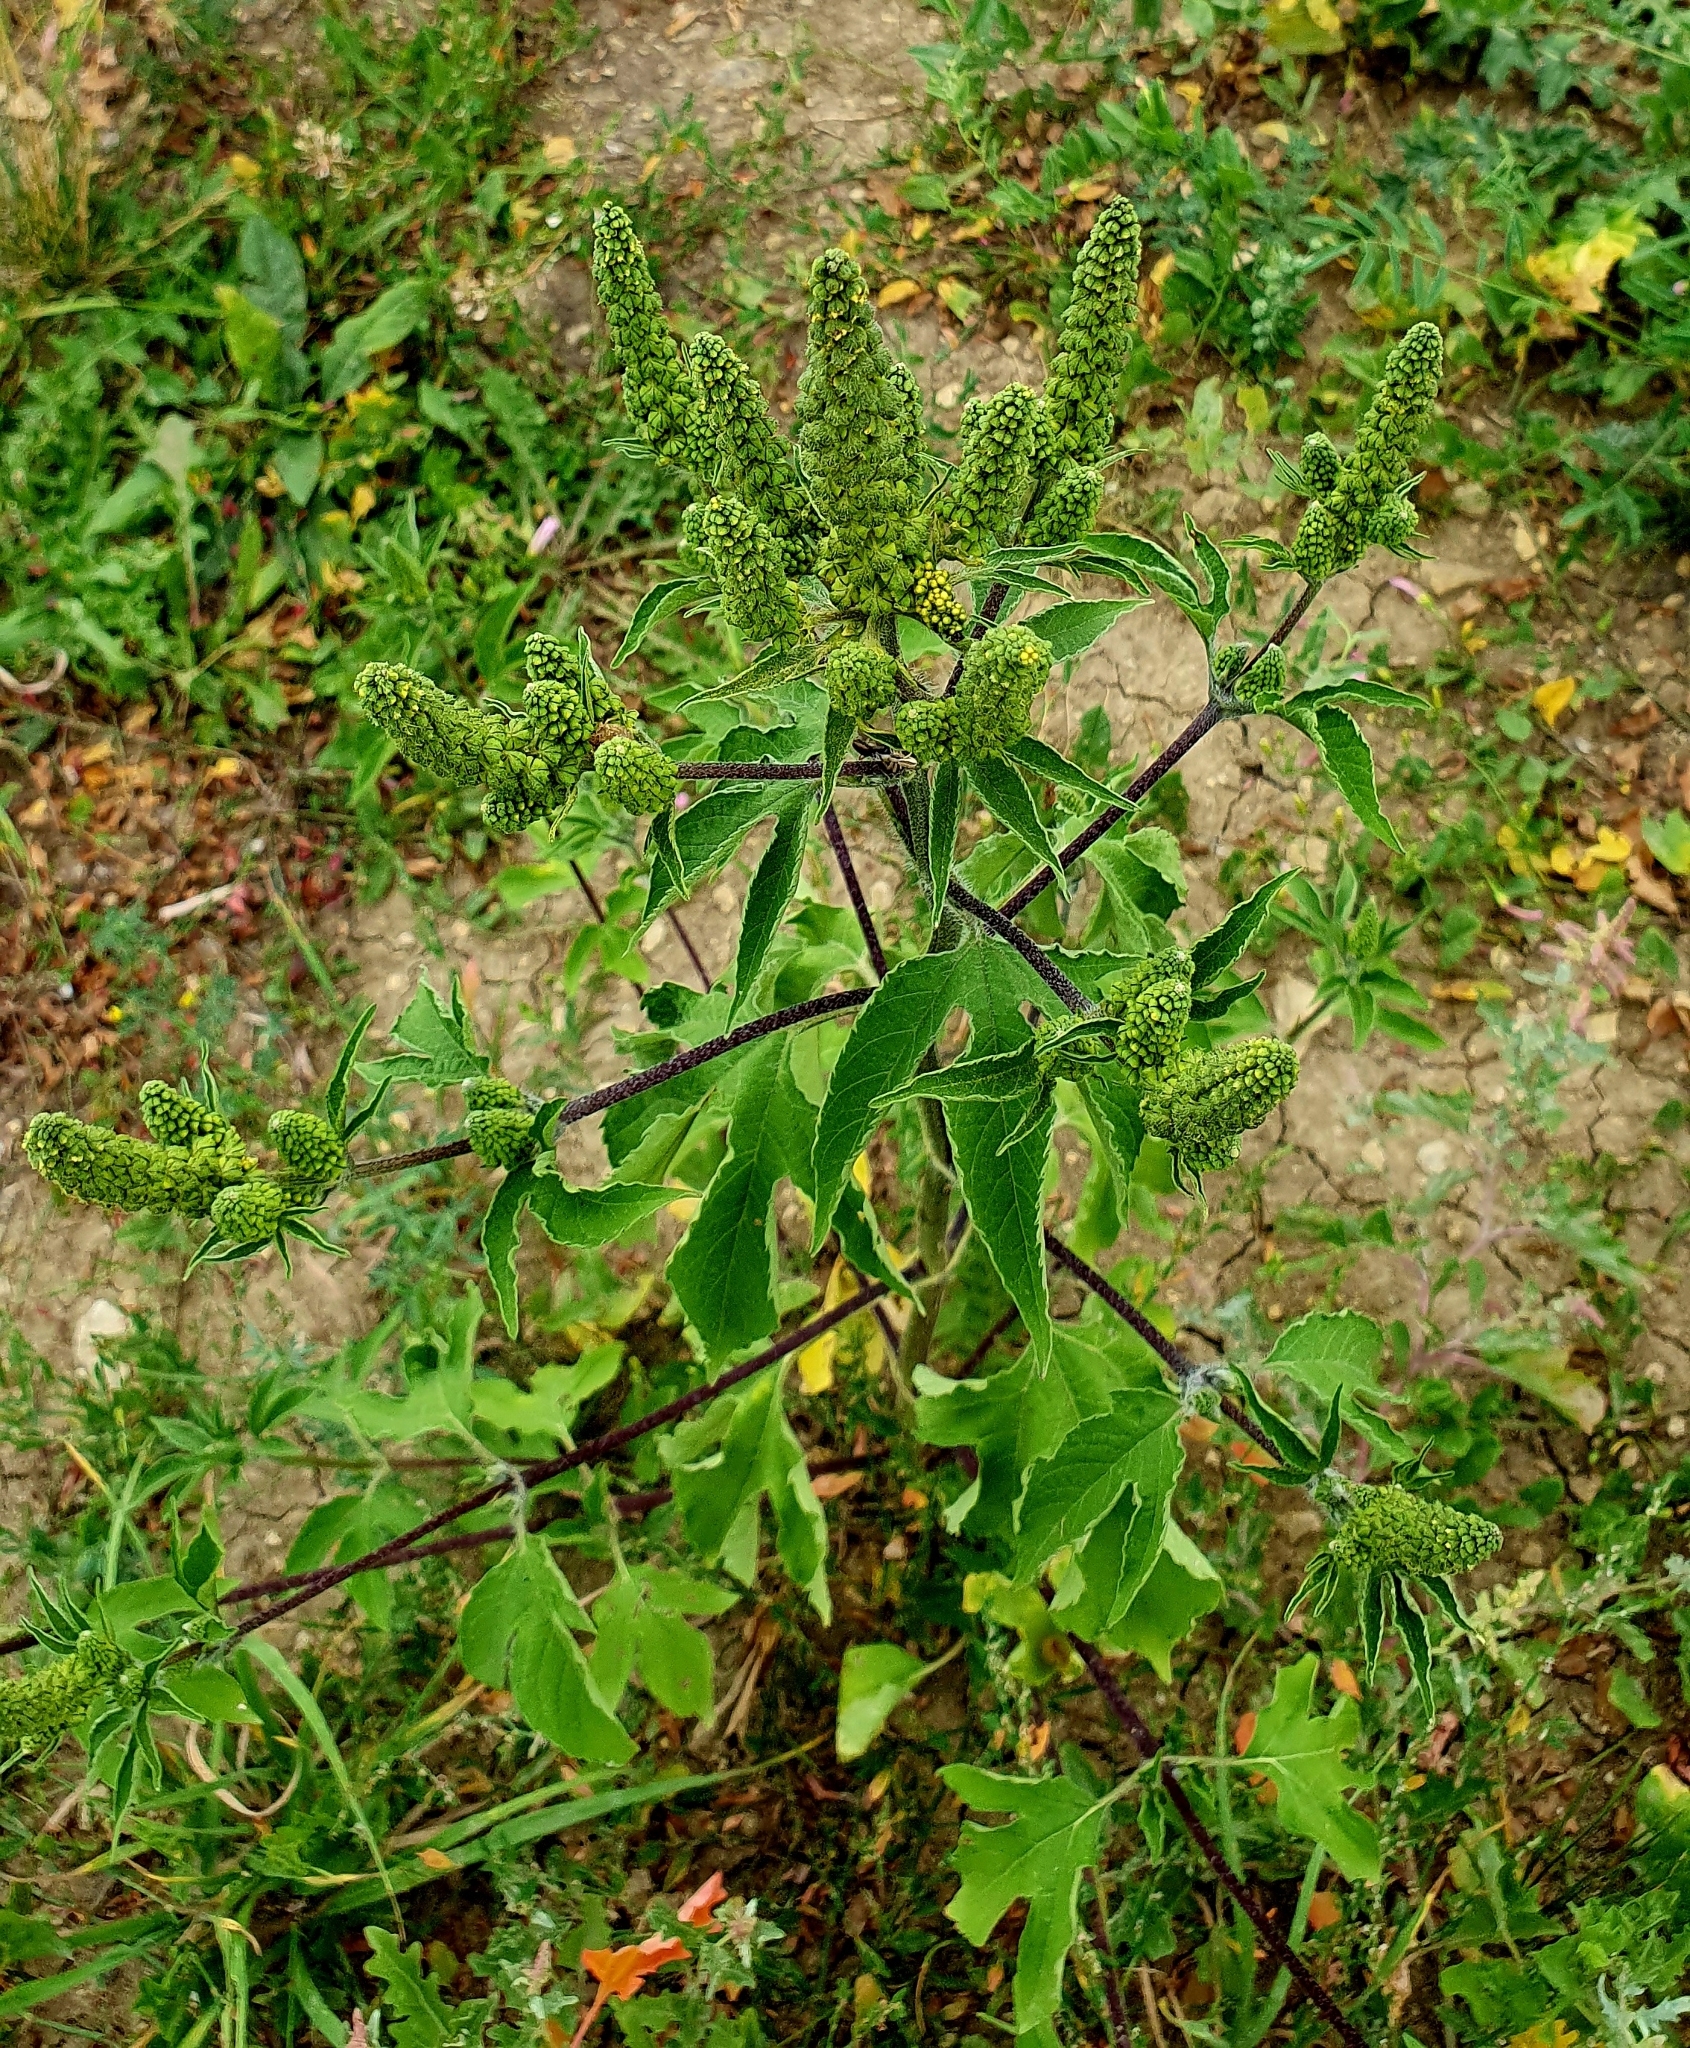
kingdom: Plantae
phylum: Tracheophyta
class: Magnoliopsida
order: Asterales
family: Asteraceae
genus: Ambrosia
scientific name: Ambrosia trifida
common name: Giant ragweed
